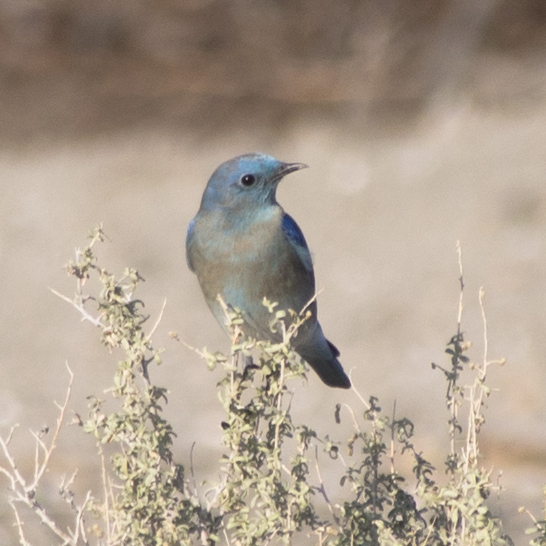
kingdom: Animalia
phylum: Chordata
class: Aves
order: Passeriformes
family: Turdidae
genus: Sialia
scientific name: Sialia currucoides
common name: Mountain bluebird
